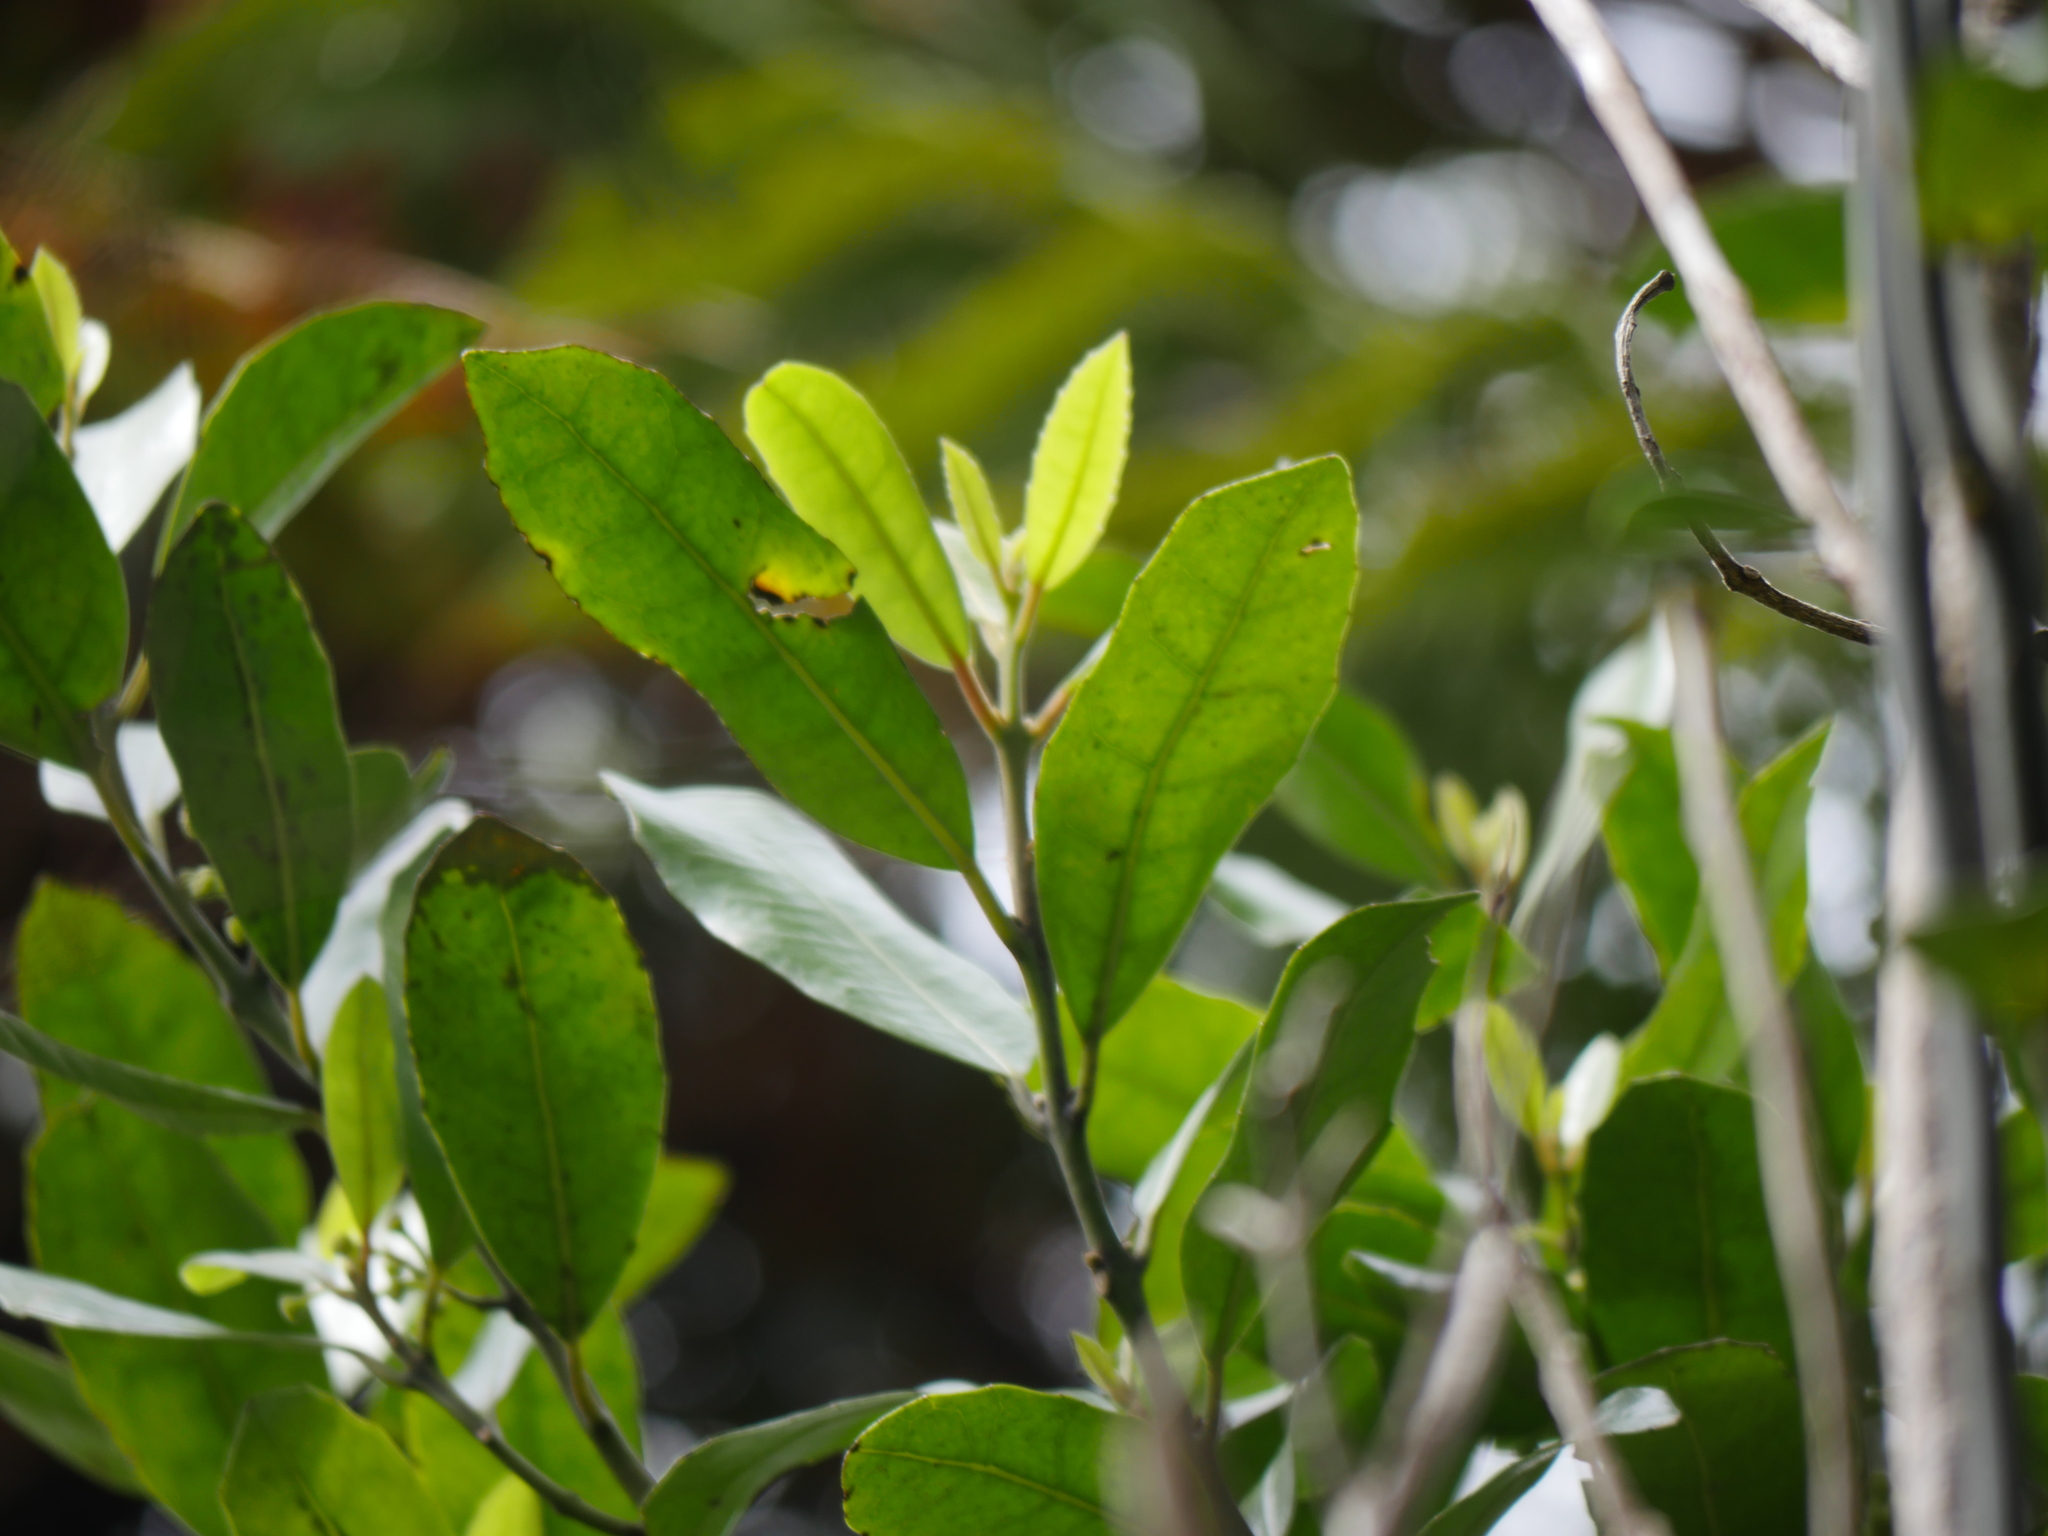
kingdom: Plantae
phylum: Tracheophyta
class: Magnoliopsida
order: Laurales
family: Monimiaceae
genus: Hedycarya
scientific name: Hedycarya arborea
